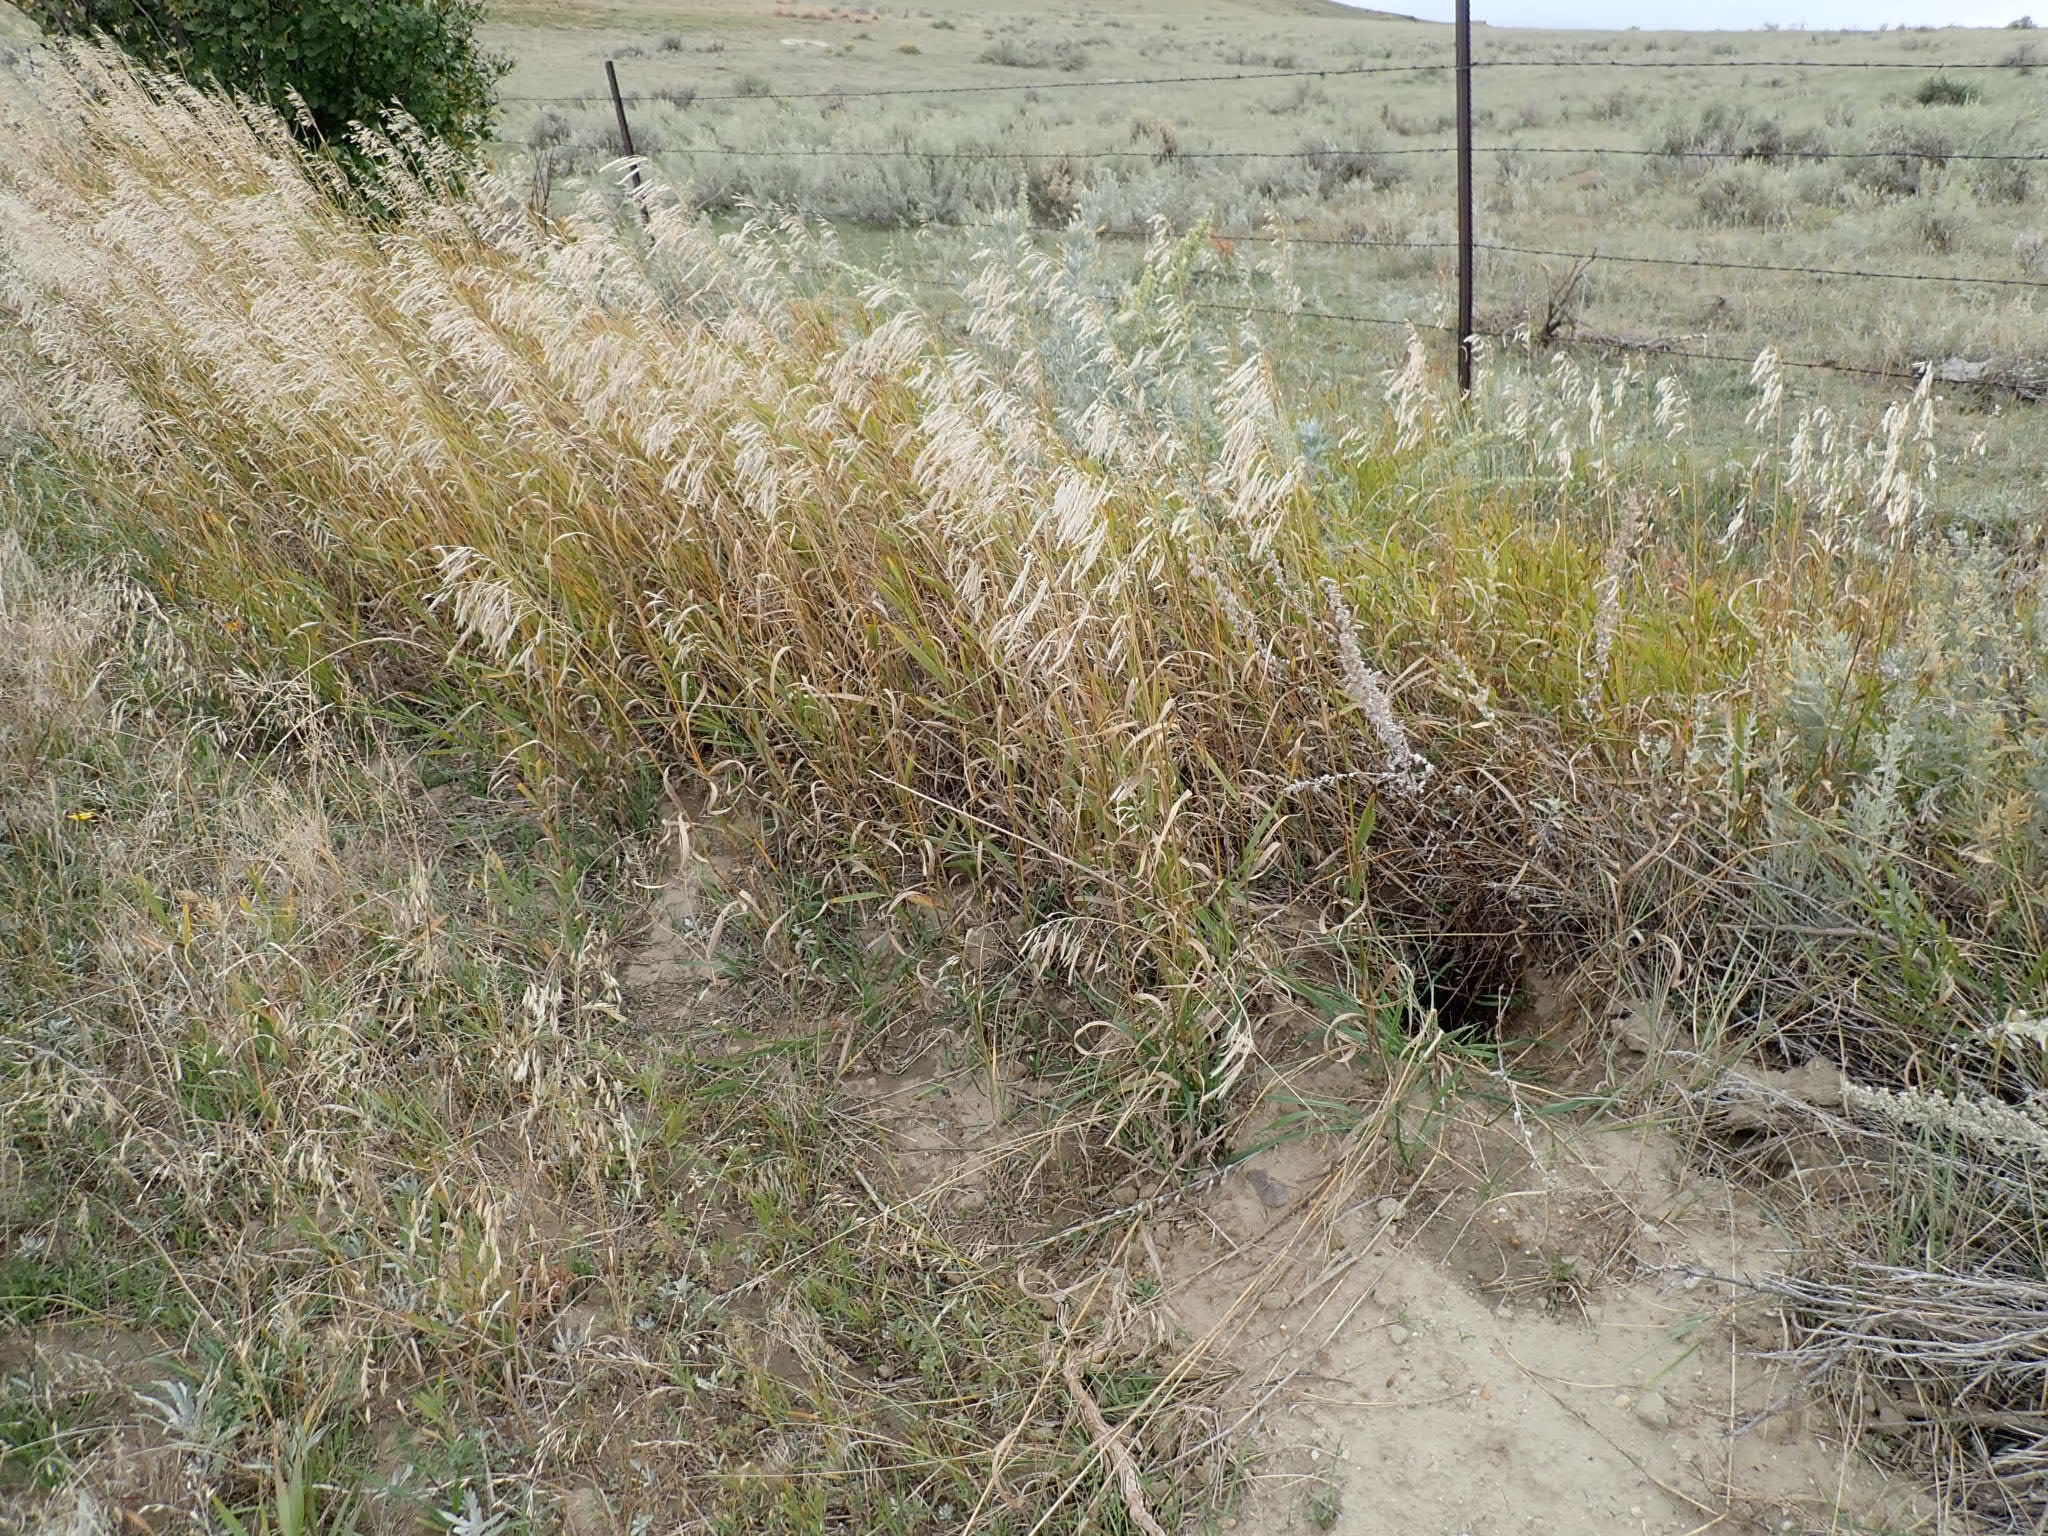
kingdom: Plantae
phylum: Tracheophyta
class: Liliopsida
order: Poales
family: Poaceae
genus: Bromus
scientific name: Bromus inermis
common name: Smooth brome
